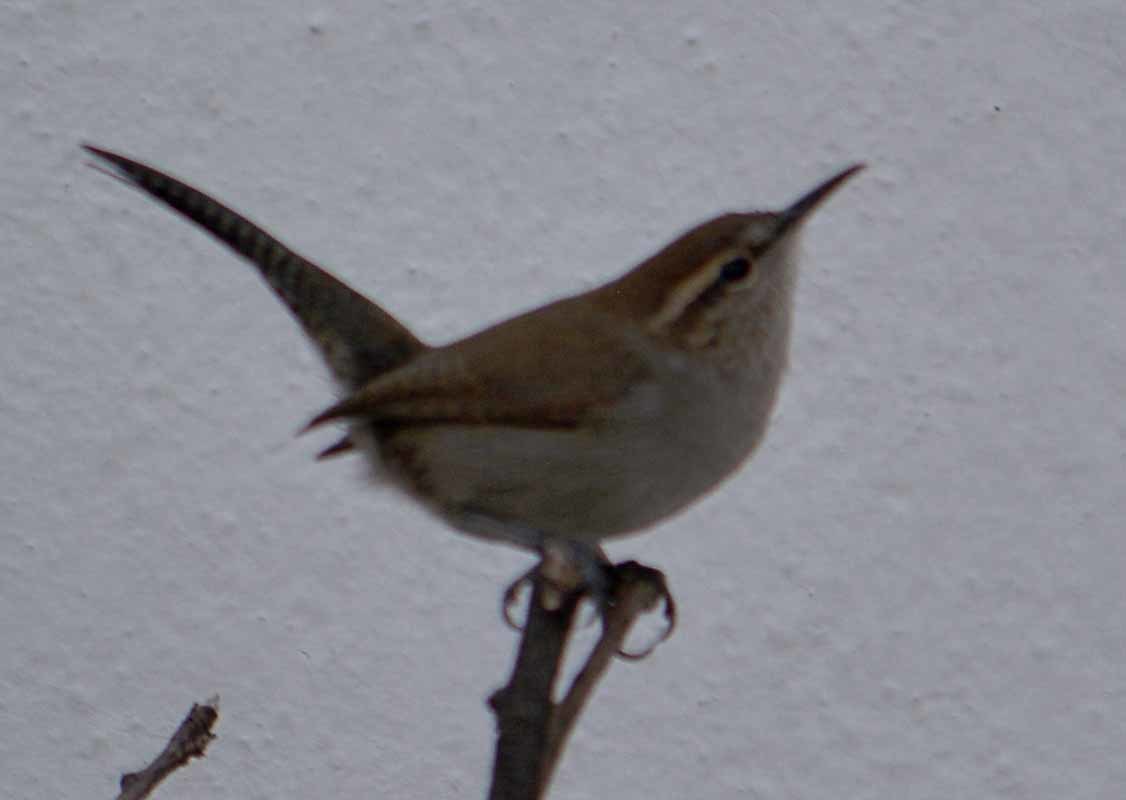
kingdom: Animalia
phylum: Chordata
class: Aves
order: Passeriformes
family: Troglodytidae
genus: Thryomanes
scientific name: Thryomanes bewickii
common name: Bewick's wren
